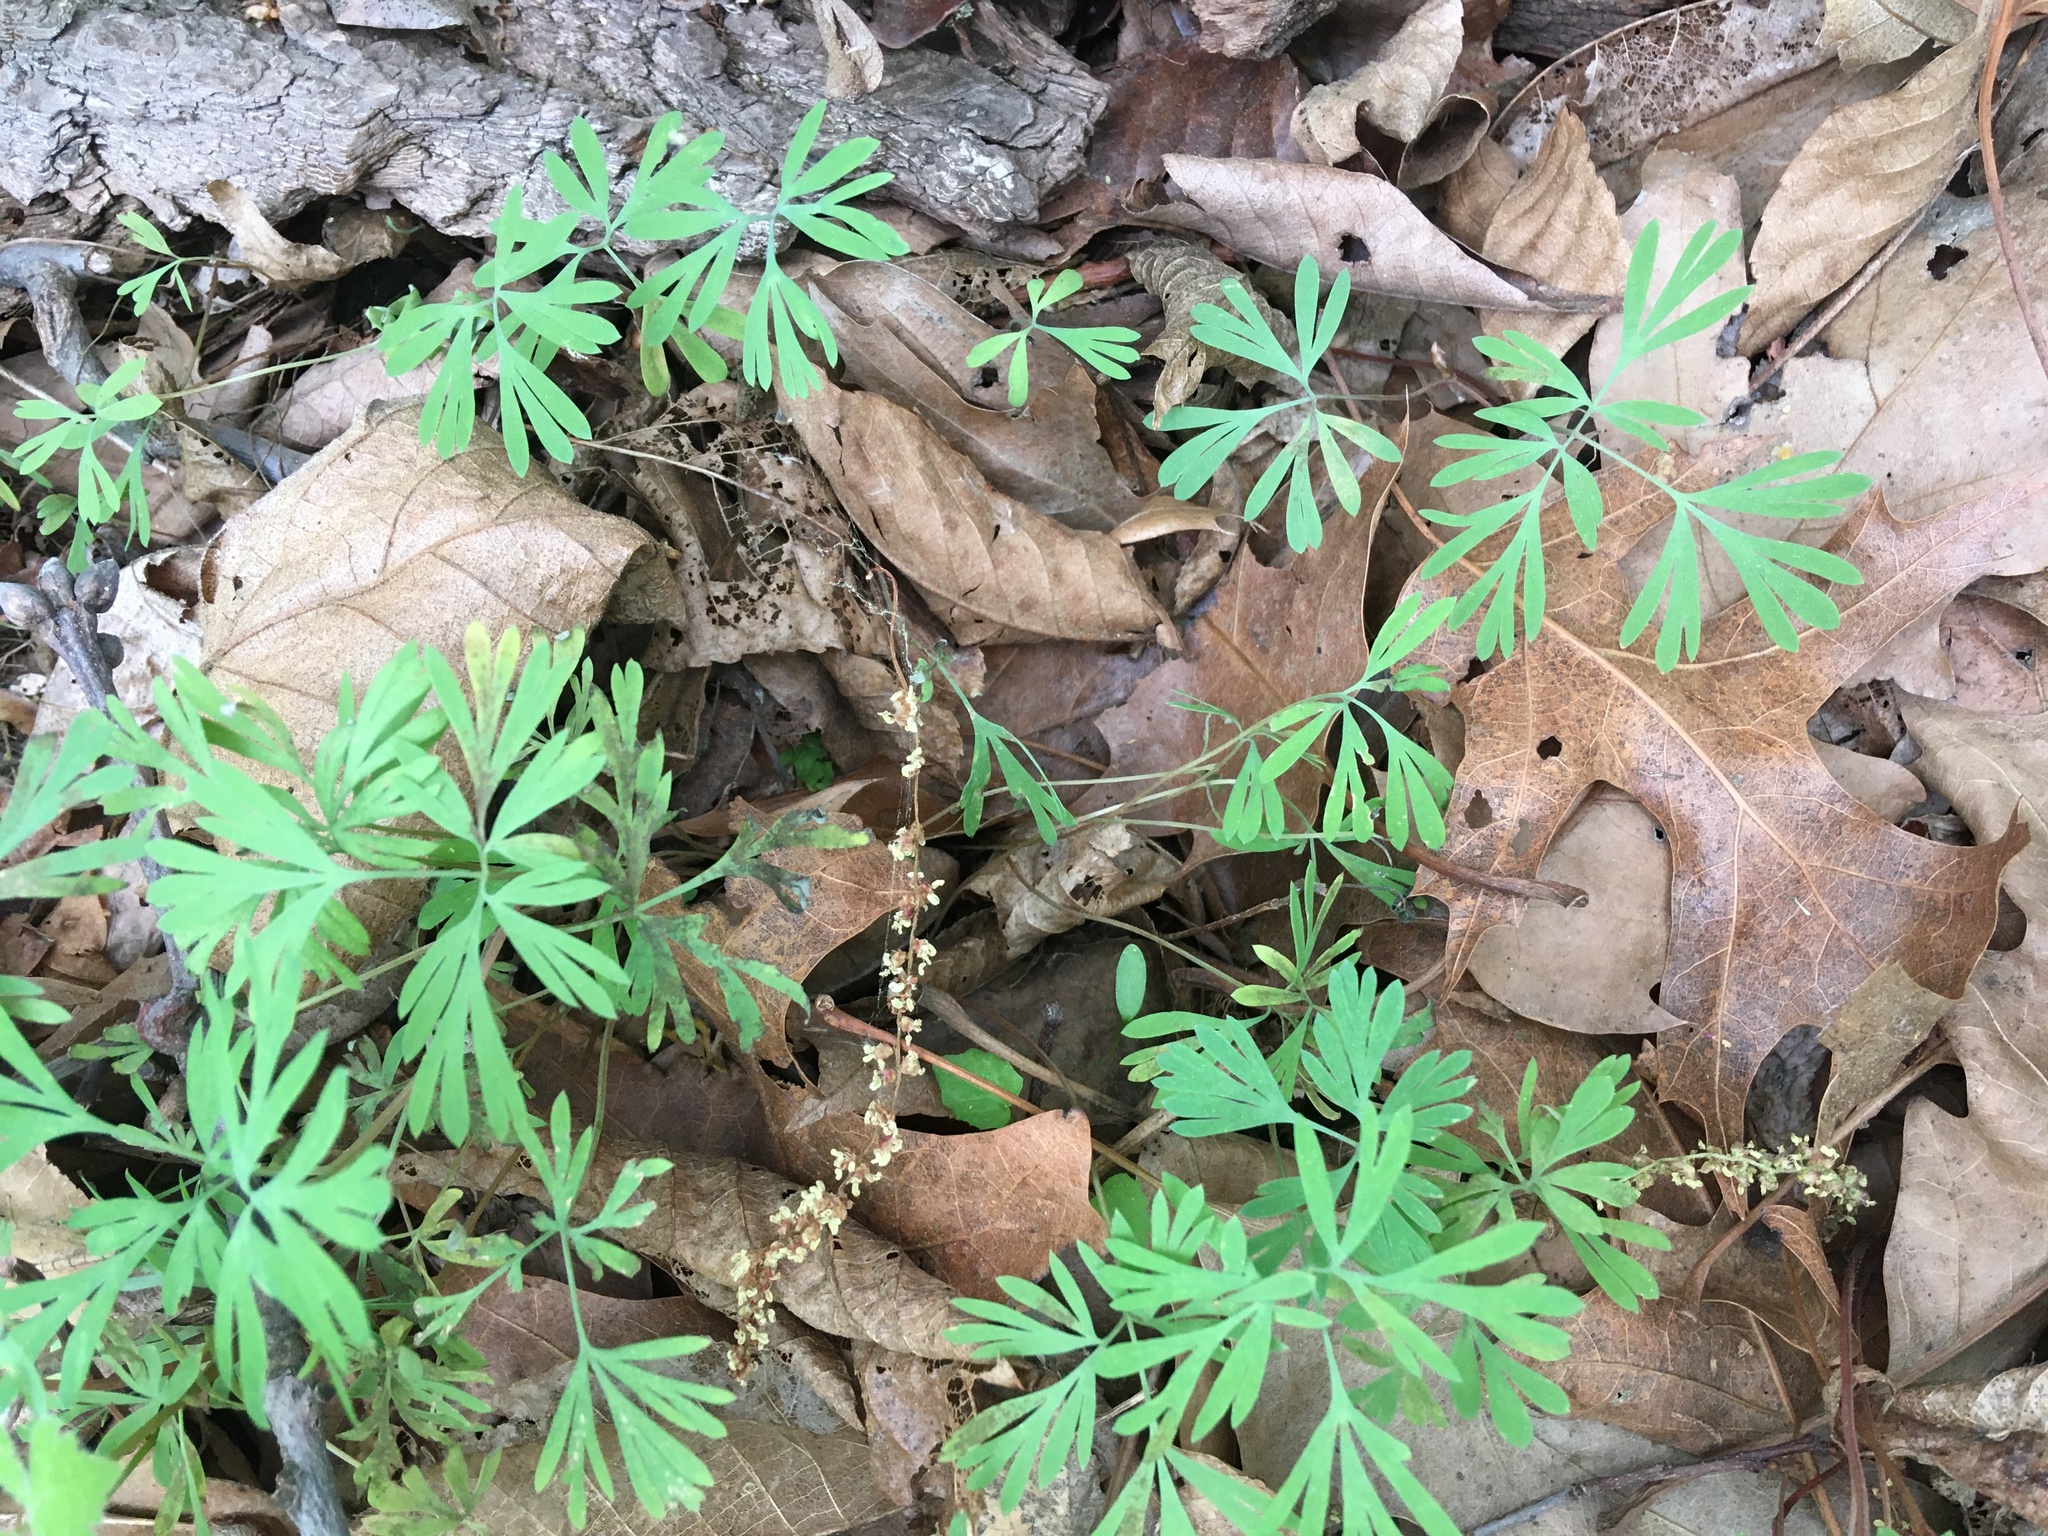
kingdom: Plantae
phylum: Tracheophyta
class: Magnoliopsida
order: Ranunculales
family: Papaveraceae
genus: Dicentra
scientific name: Dicentra cucullaria
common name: Dutchman's breeches
